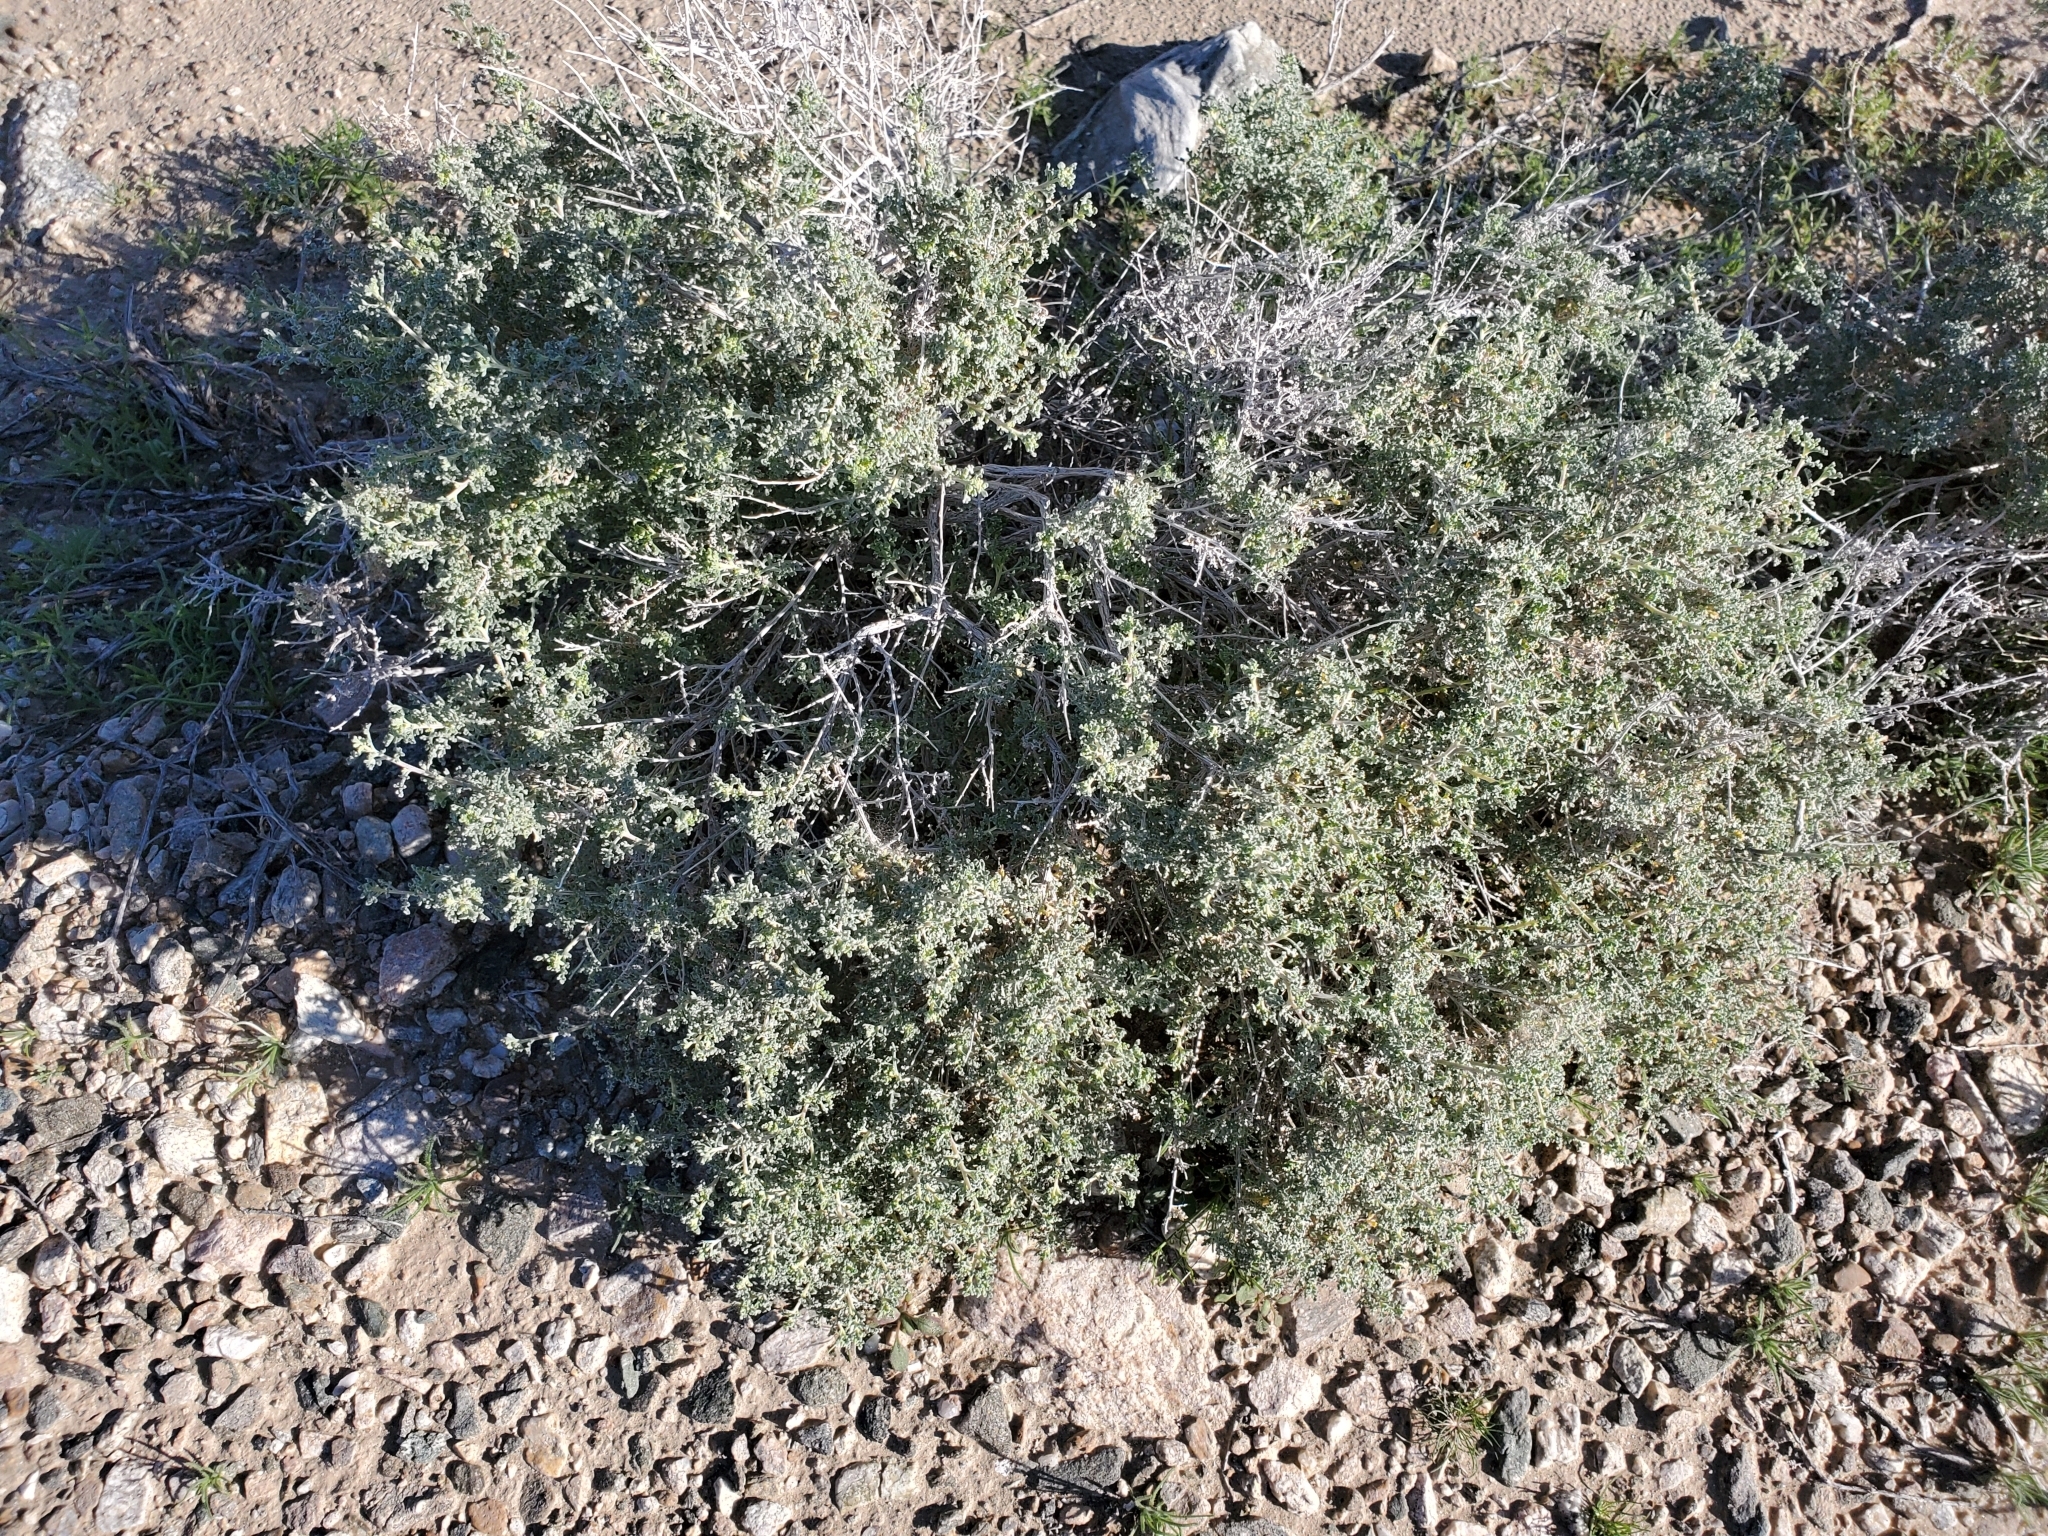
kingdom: Plantae
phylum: Tracheophyta
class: Magnoliopsida
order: Asterales
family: Asteraceae
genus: Ambrosia
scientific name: Ambrosia dumosa
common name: Bur-sage
